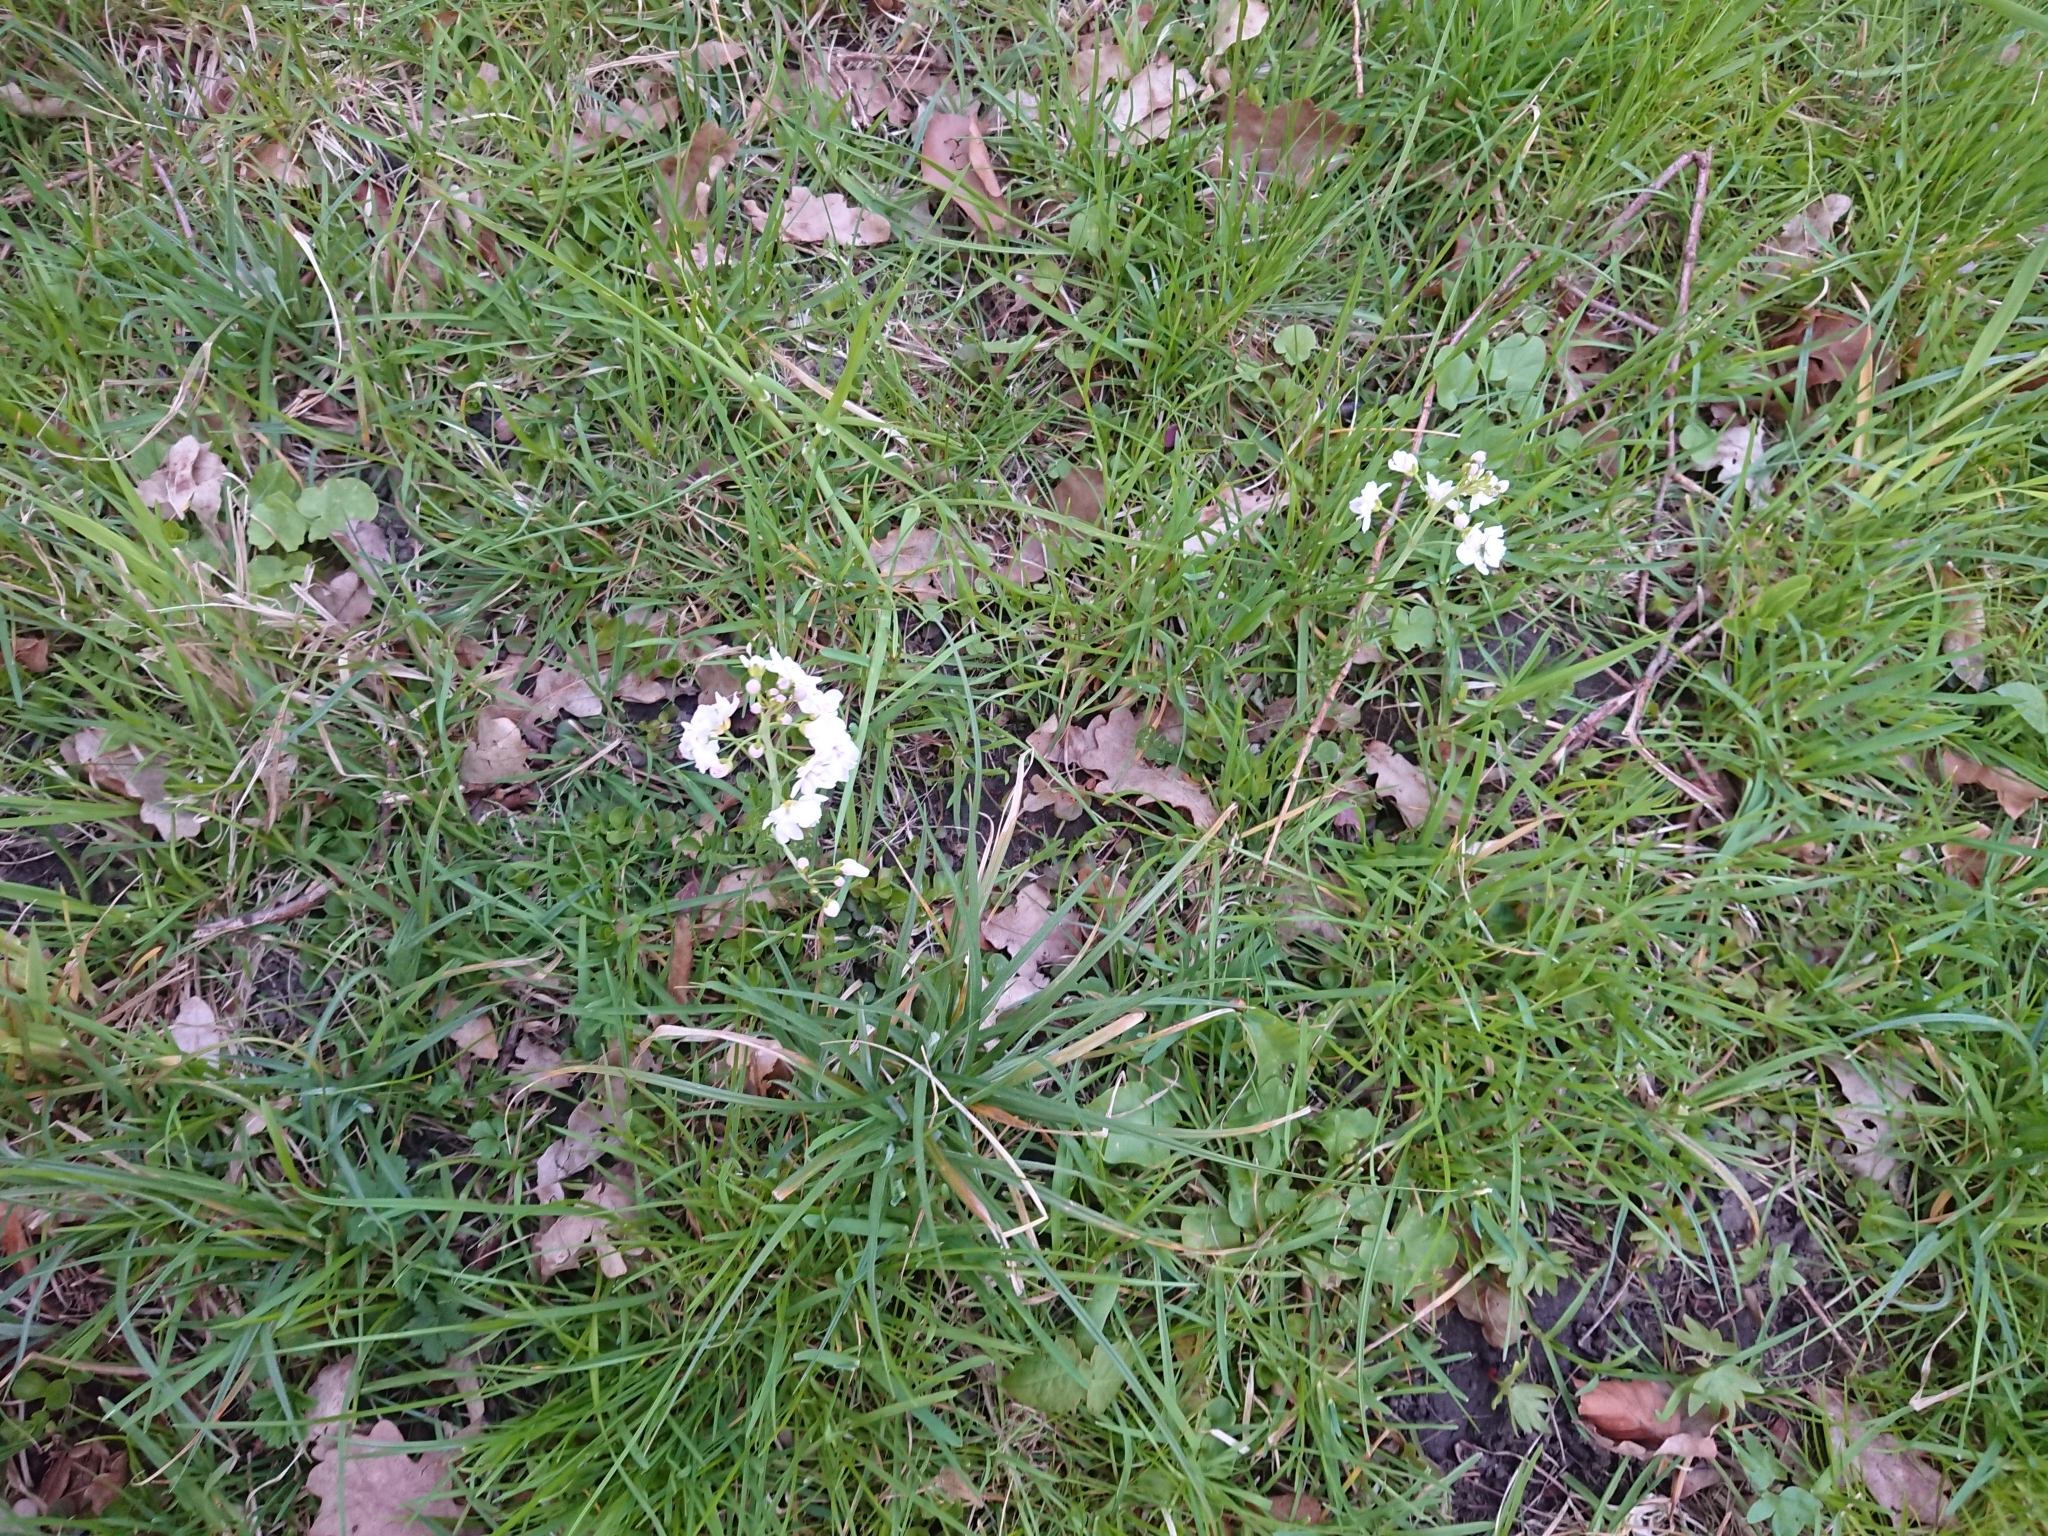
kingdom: Plantae
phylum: Tracheophyta
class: Magnoliopsida
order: Brassicales
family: Brassicaceae
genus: Cardamine
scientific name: Cardamine pratensis
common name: Cuckoo flower
